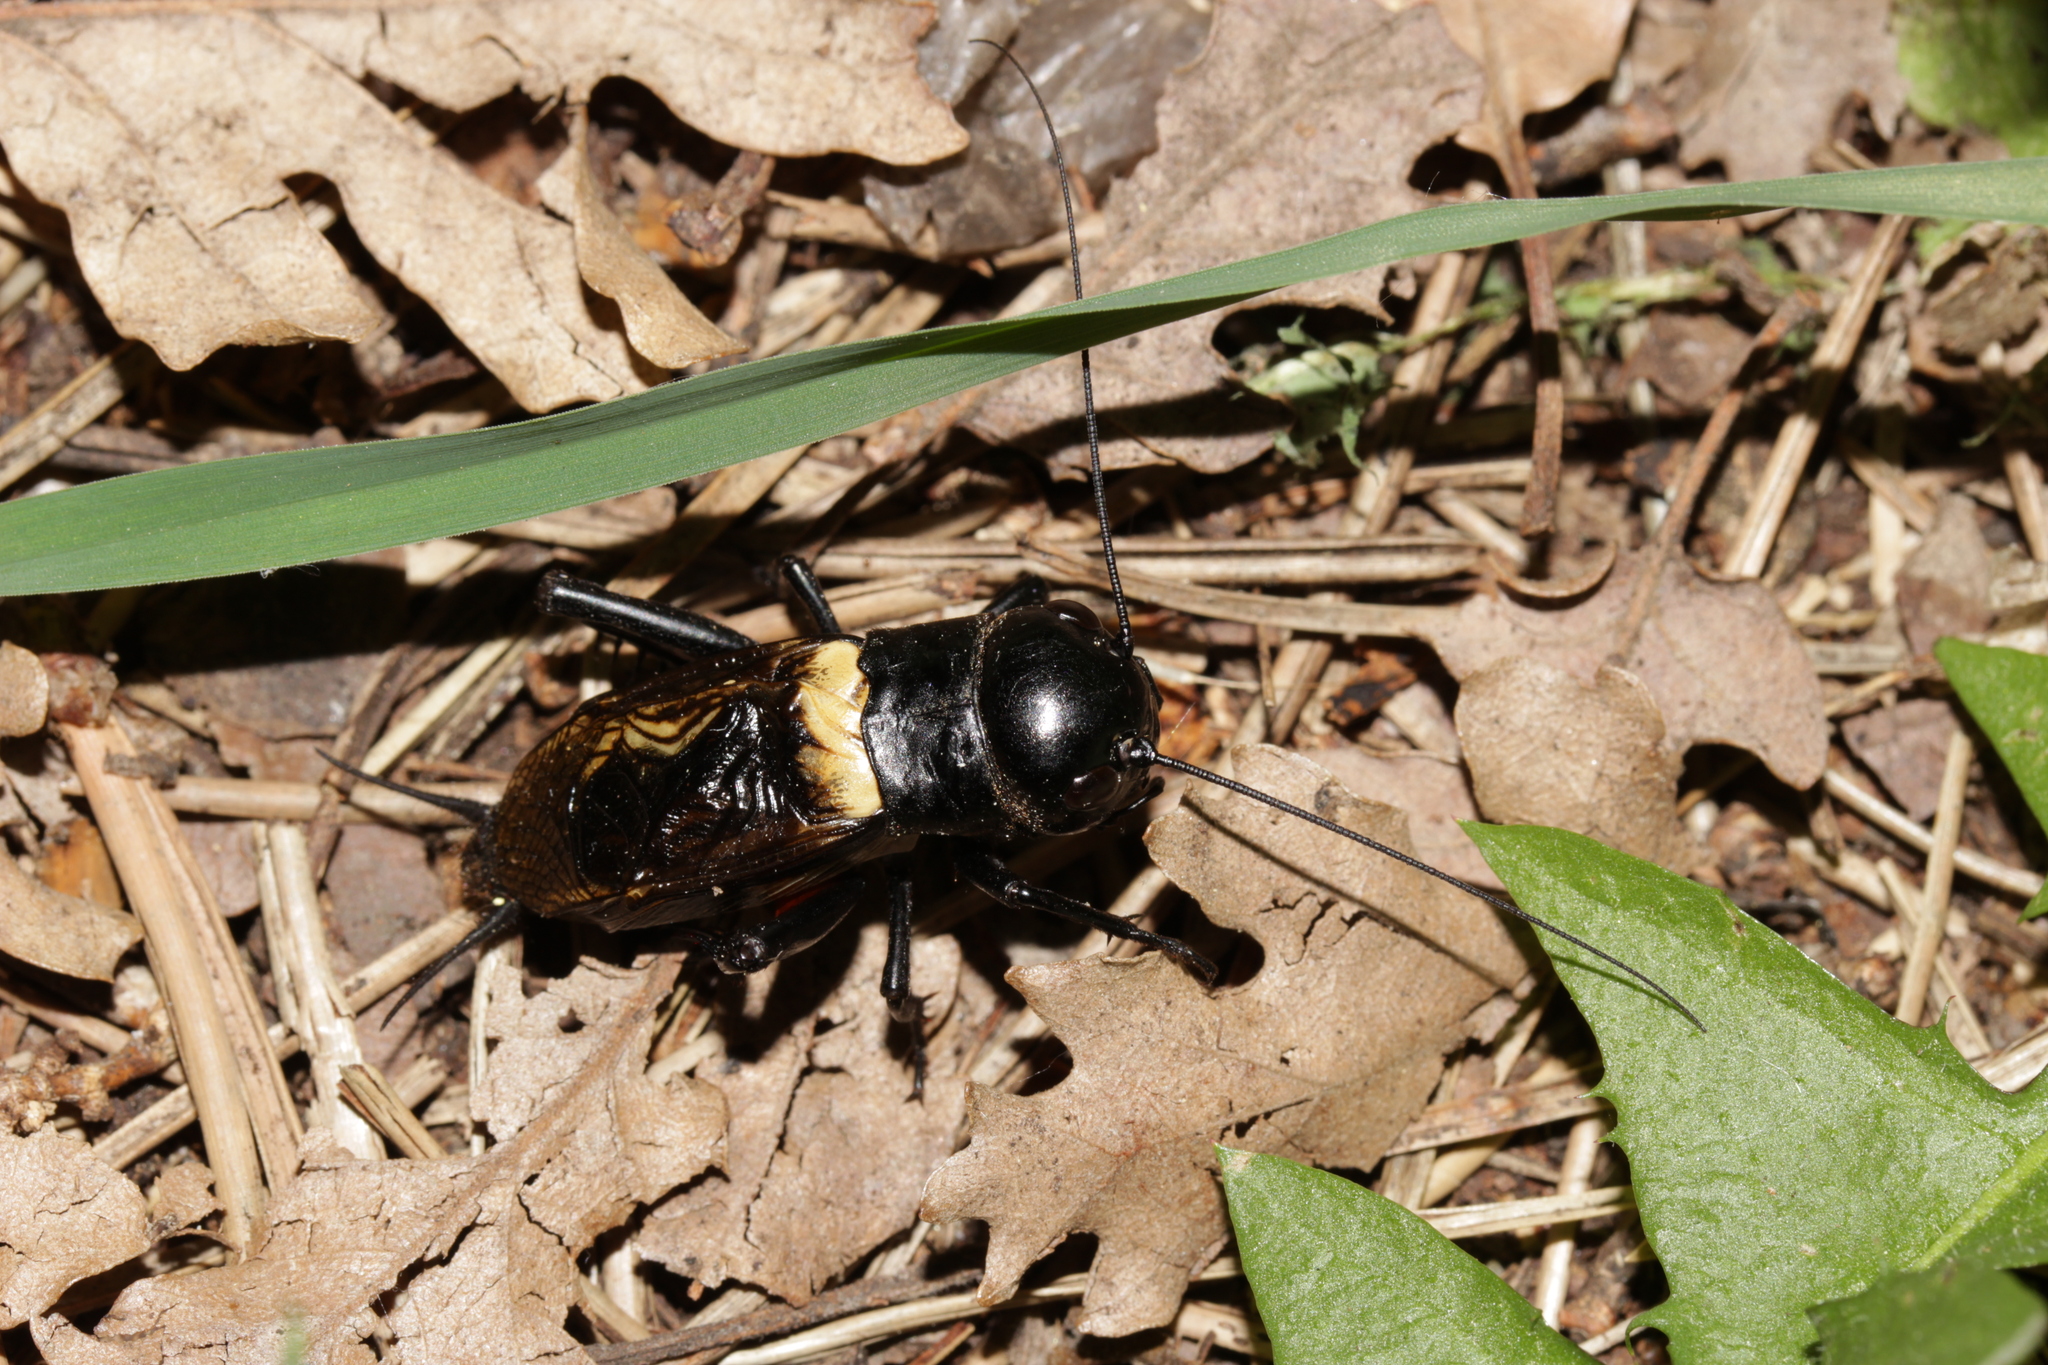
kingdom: Animalia
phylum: Arthropoda
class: Insecta
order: Orthoptera
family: Gryllidae
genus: Gryllus
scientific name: Gryllus campestris
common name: Field cricket
